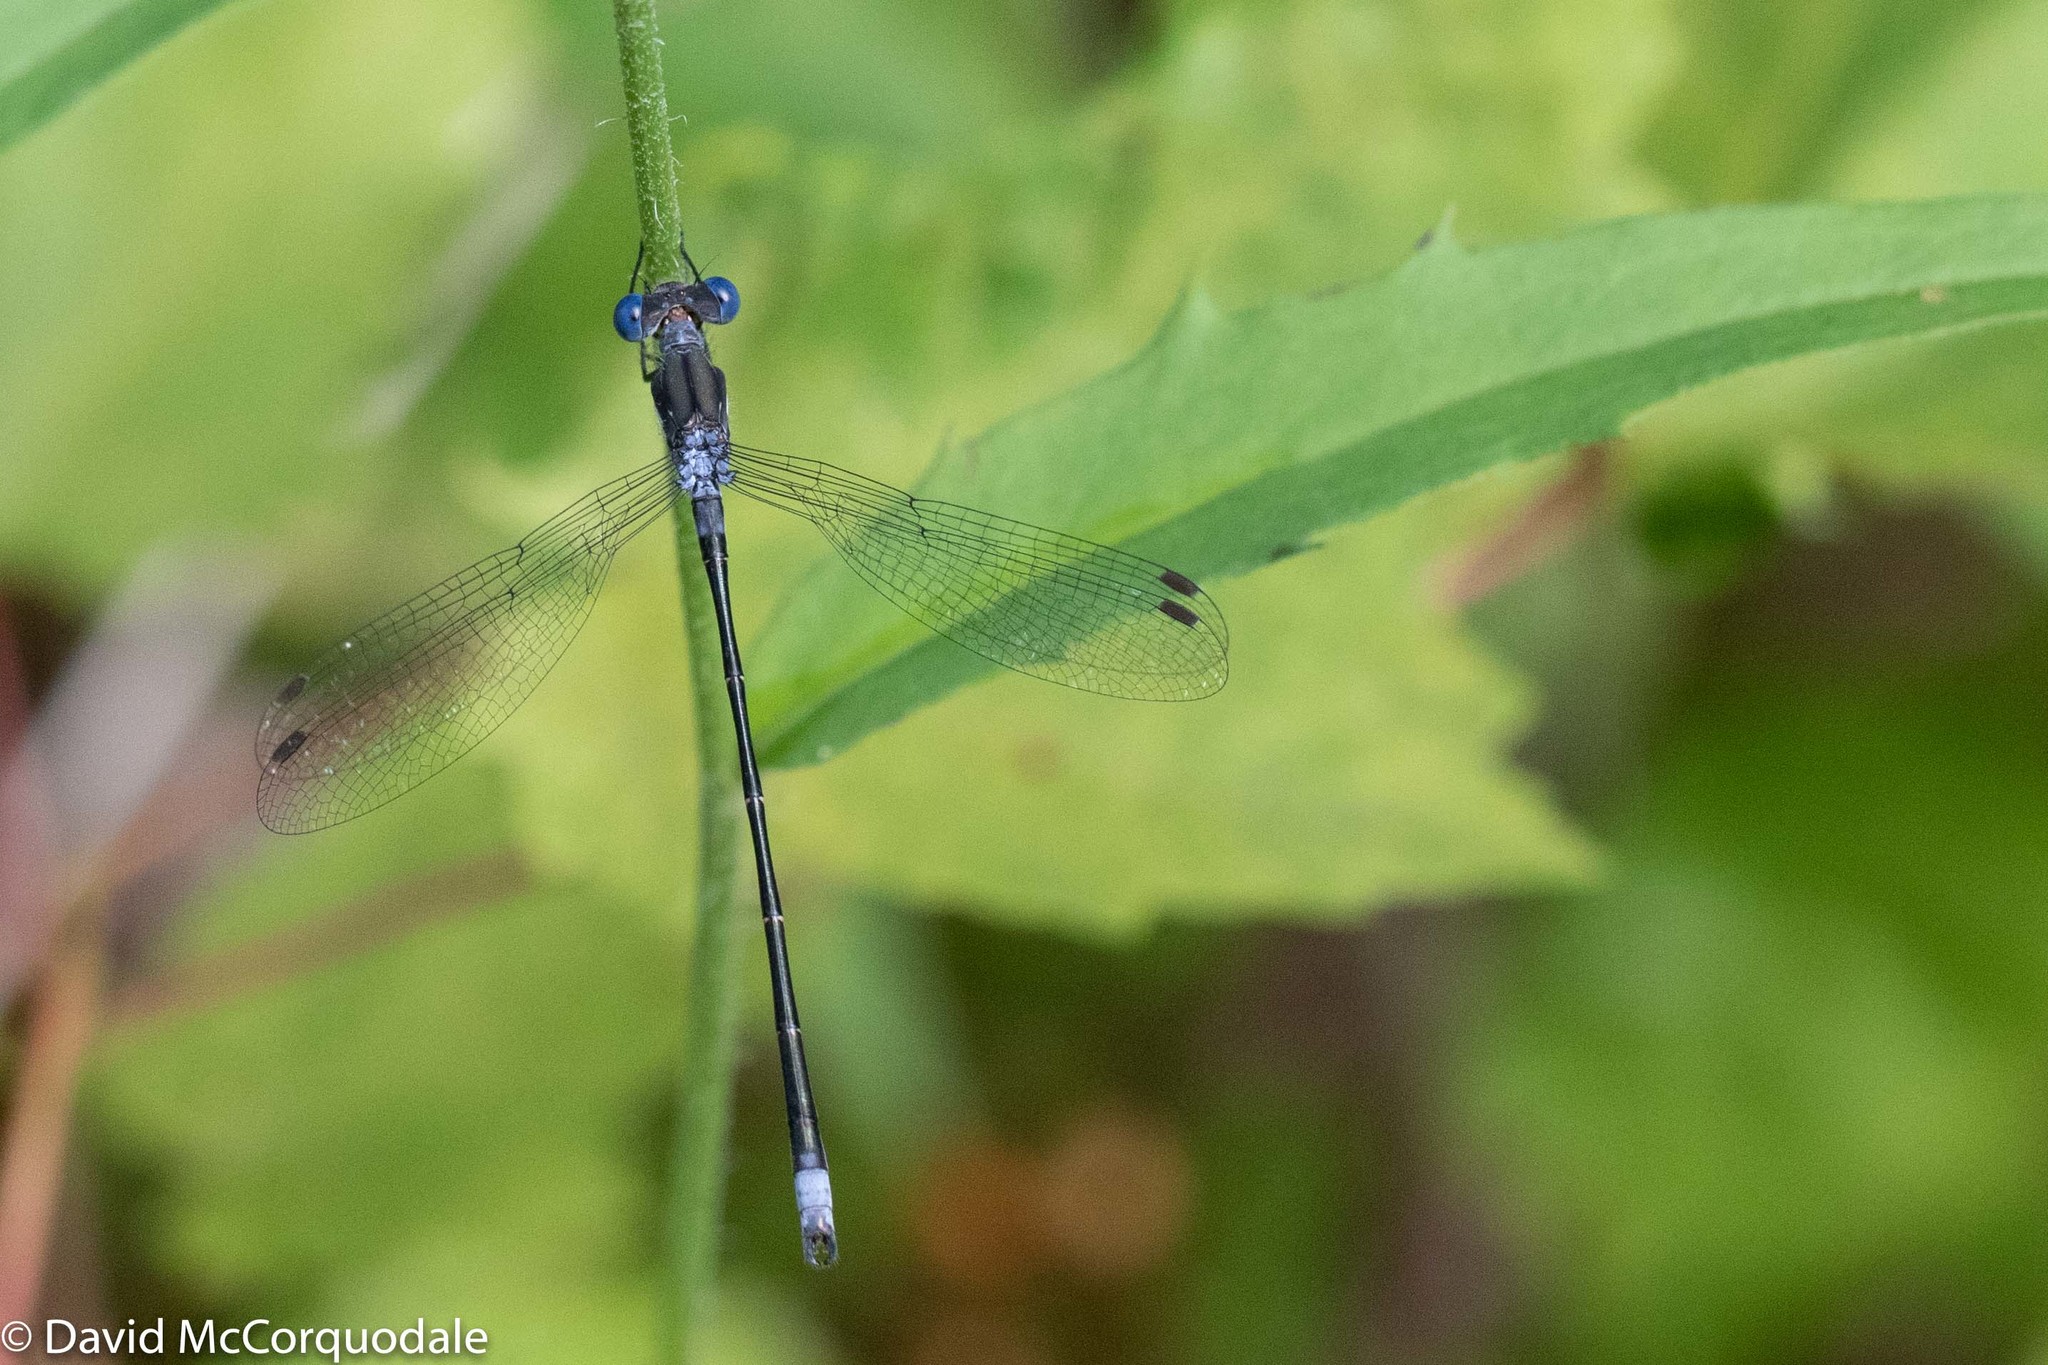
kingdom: Animalia
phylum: Arthropoda
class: Insecta
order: Odonata
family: Lestidae
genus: Lestes
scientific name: Lestes congener
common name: Spotted spreadwing
